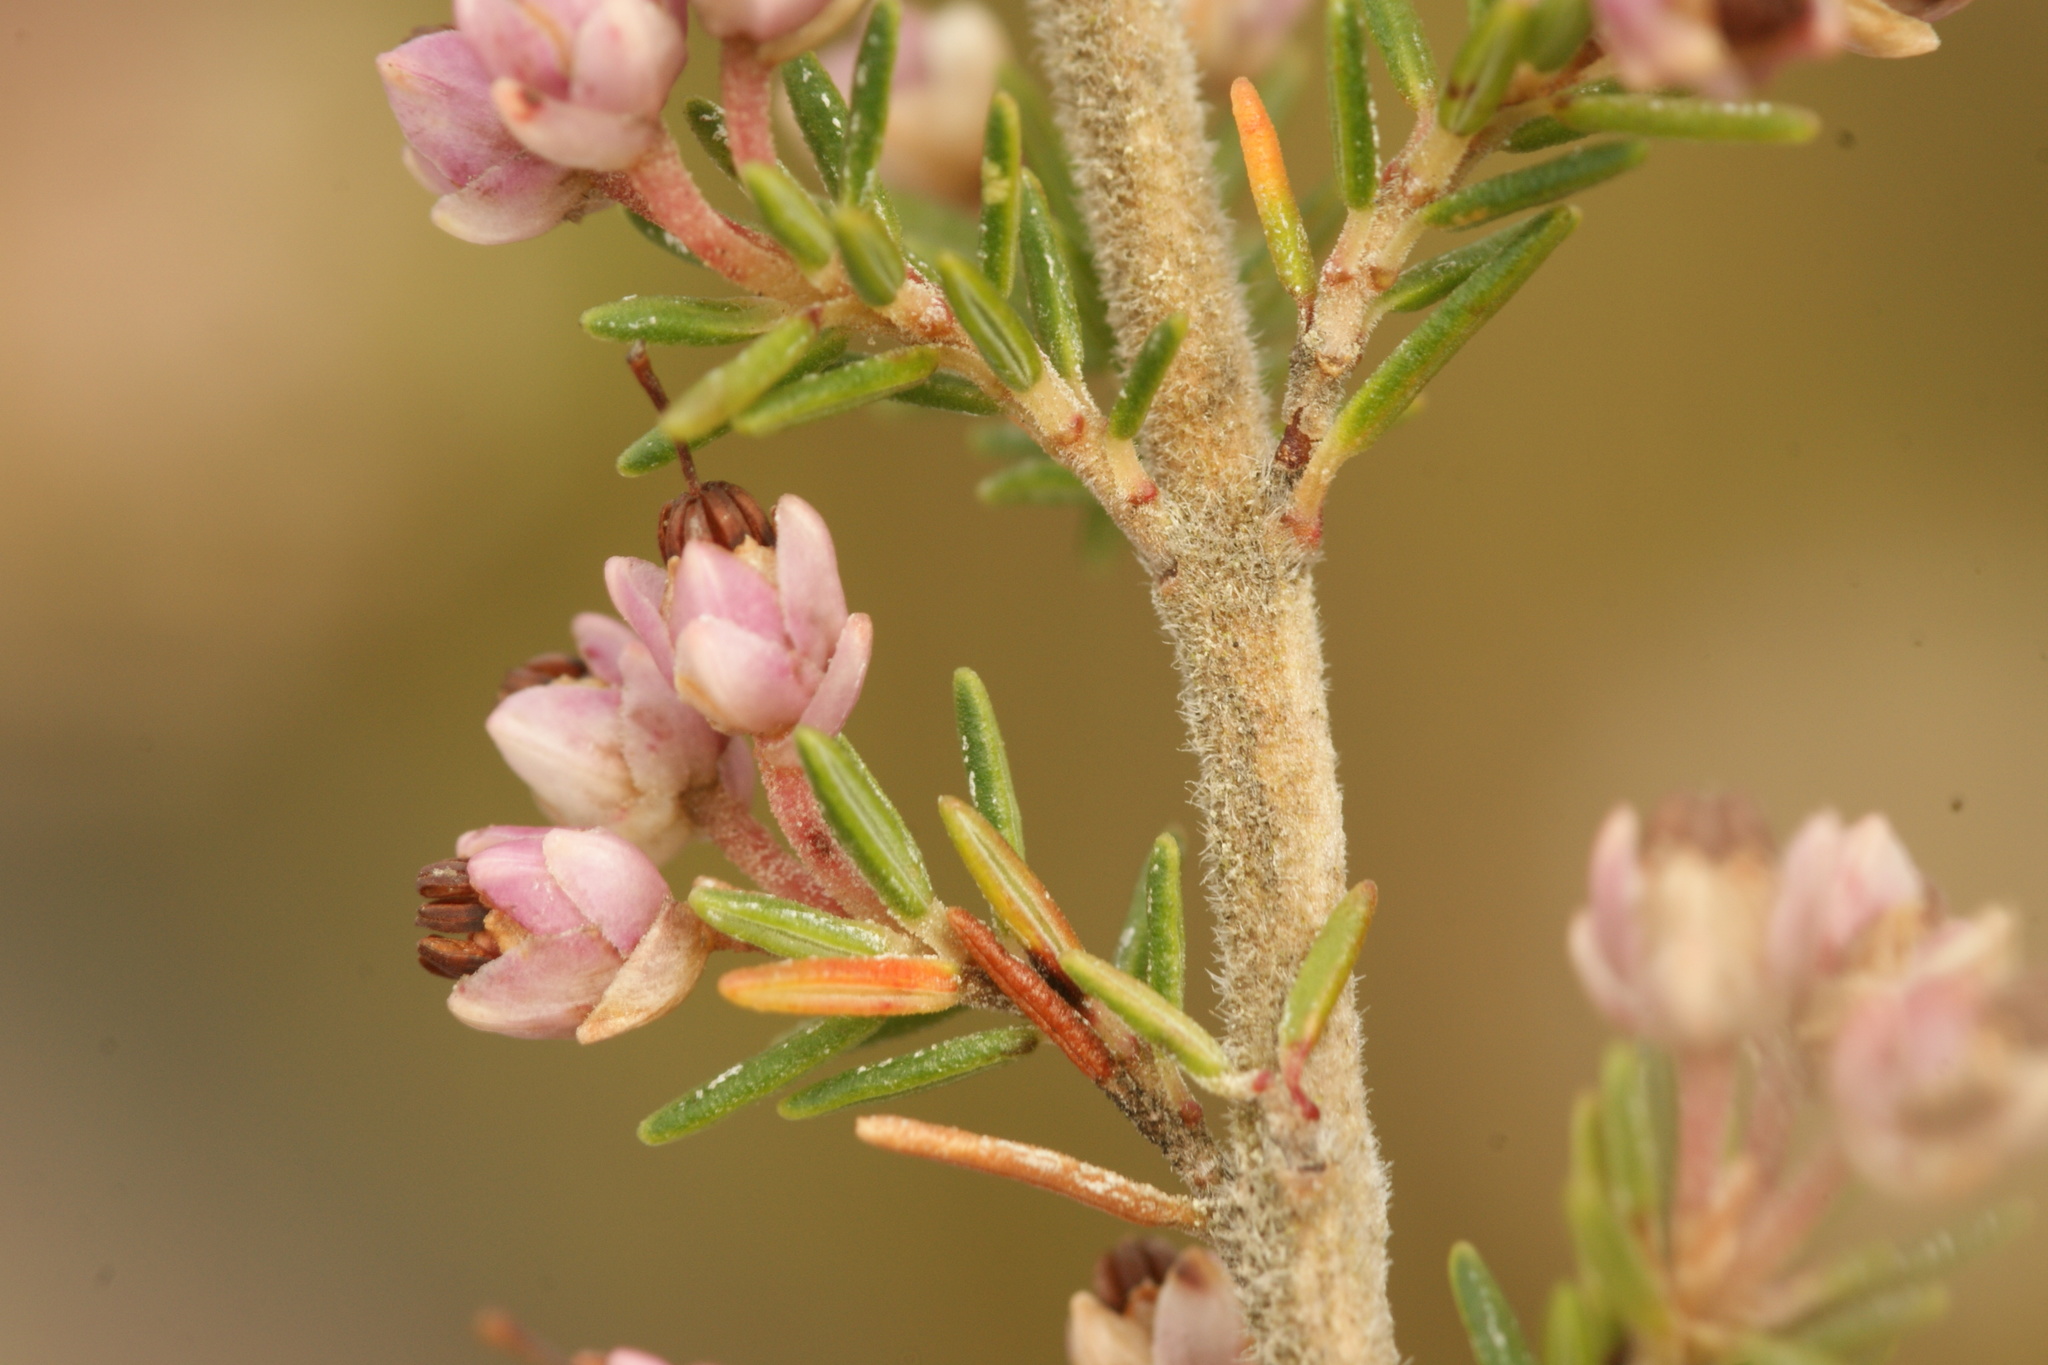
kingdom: Plantae
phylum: Tracheophyta
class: Magnoliopsida
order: Ericales
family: Ericaceae
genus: Erica
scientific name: Erica imbricata
